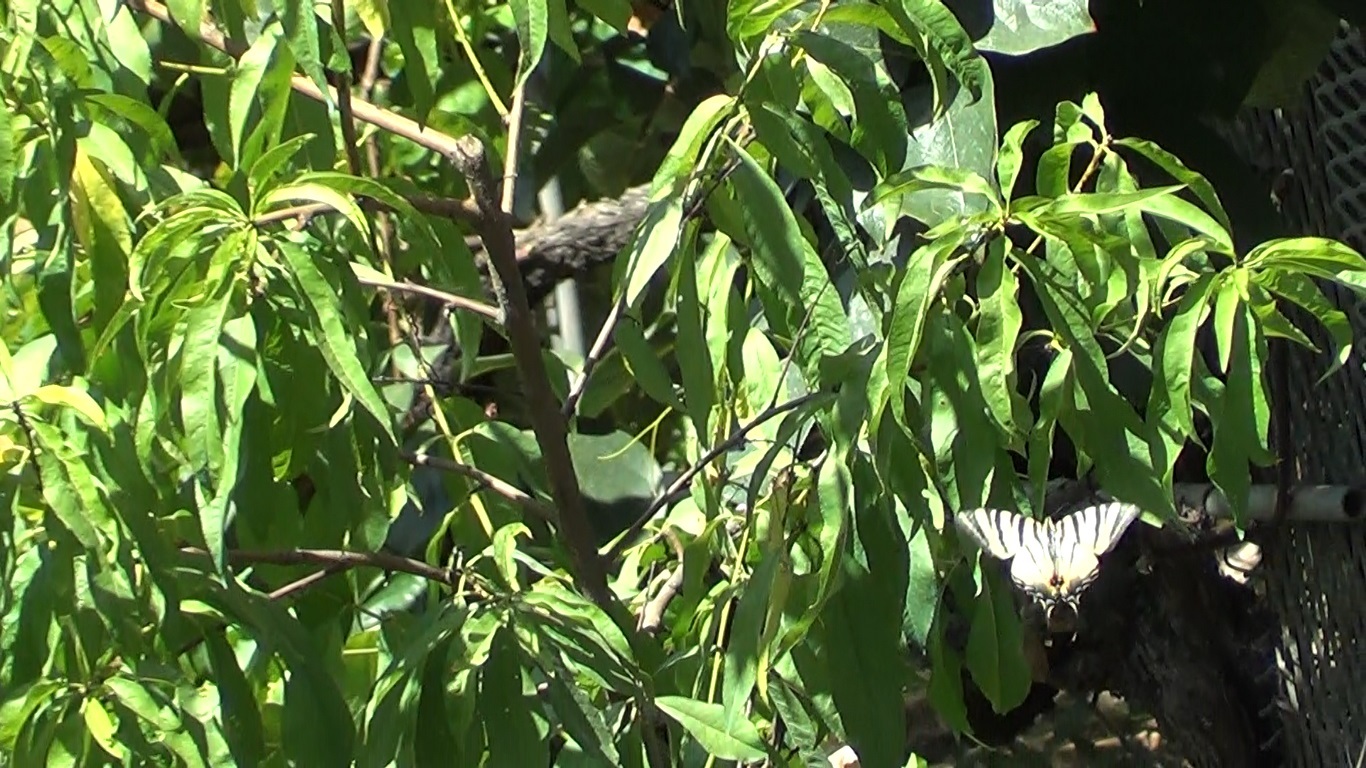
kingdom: Animalia
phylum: Arthropoda
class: Insecta
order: Lepidoptera
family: Papilionidae
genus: Iphiclides
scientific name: Iphiclides podalirius
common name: Scarce swallowtail
